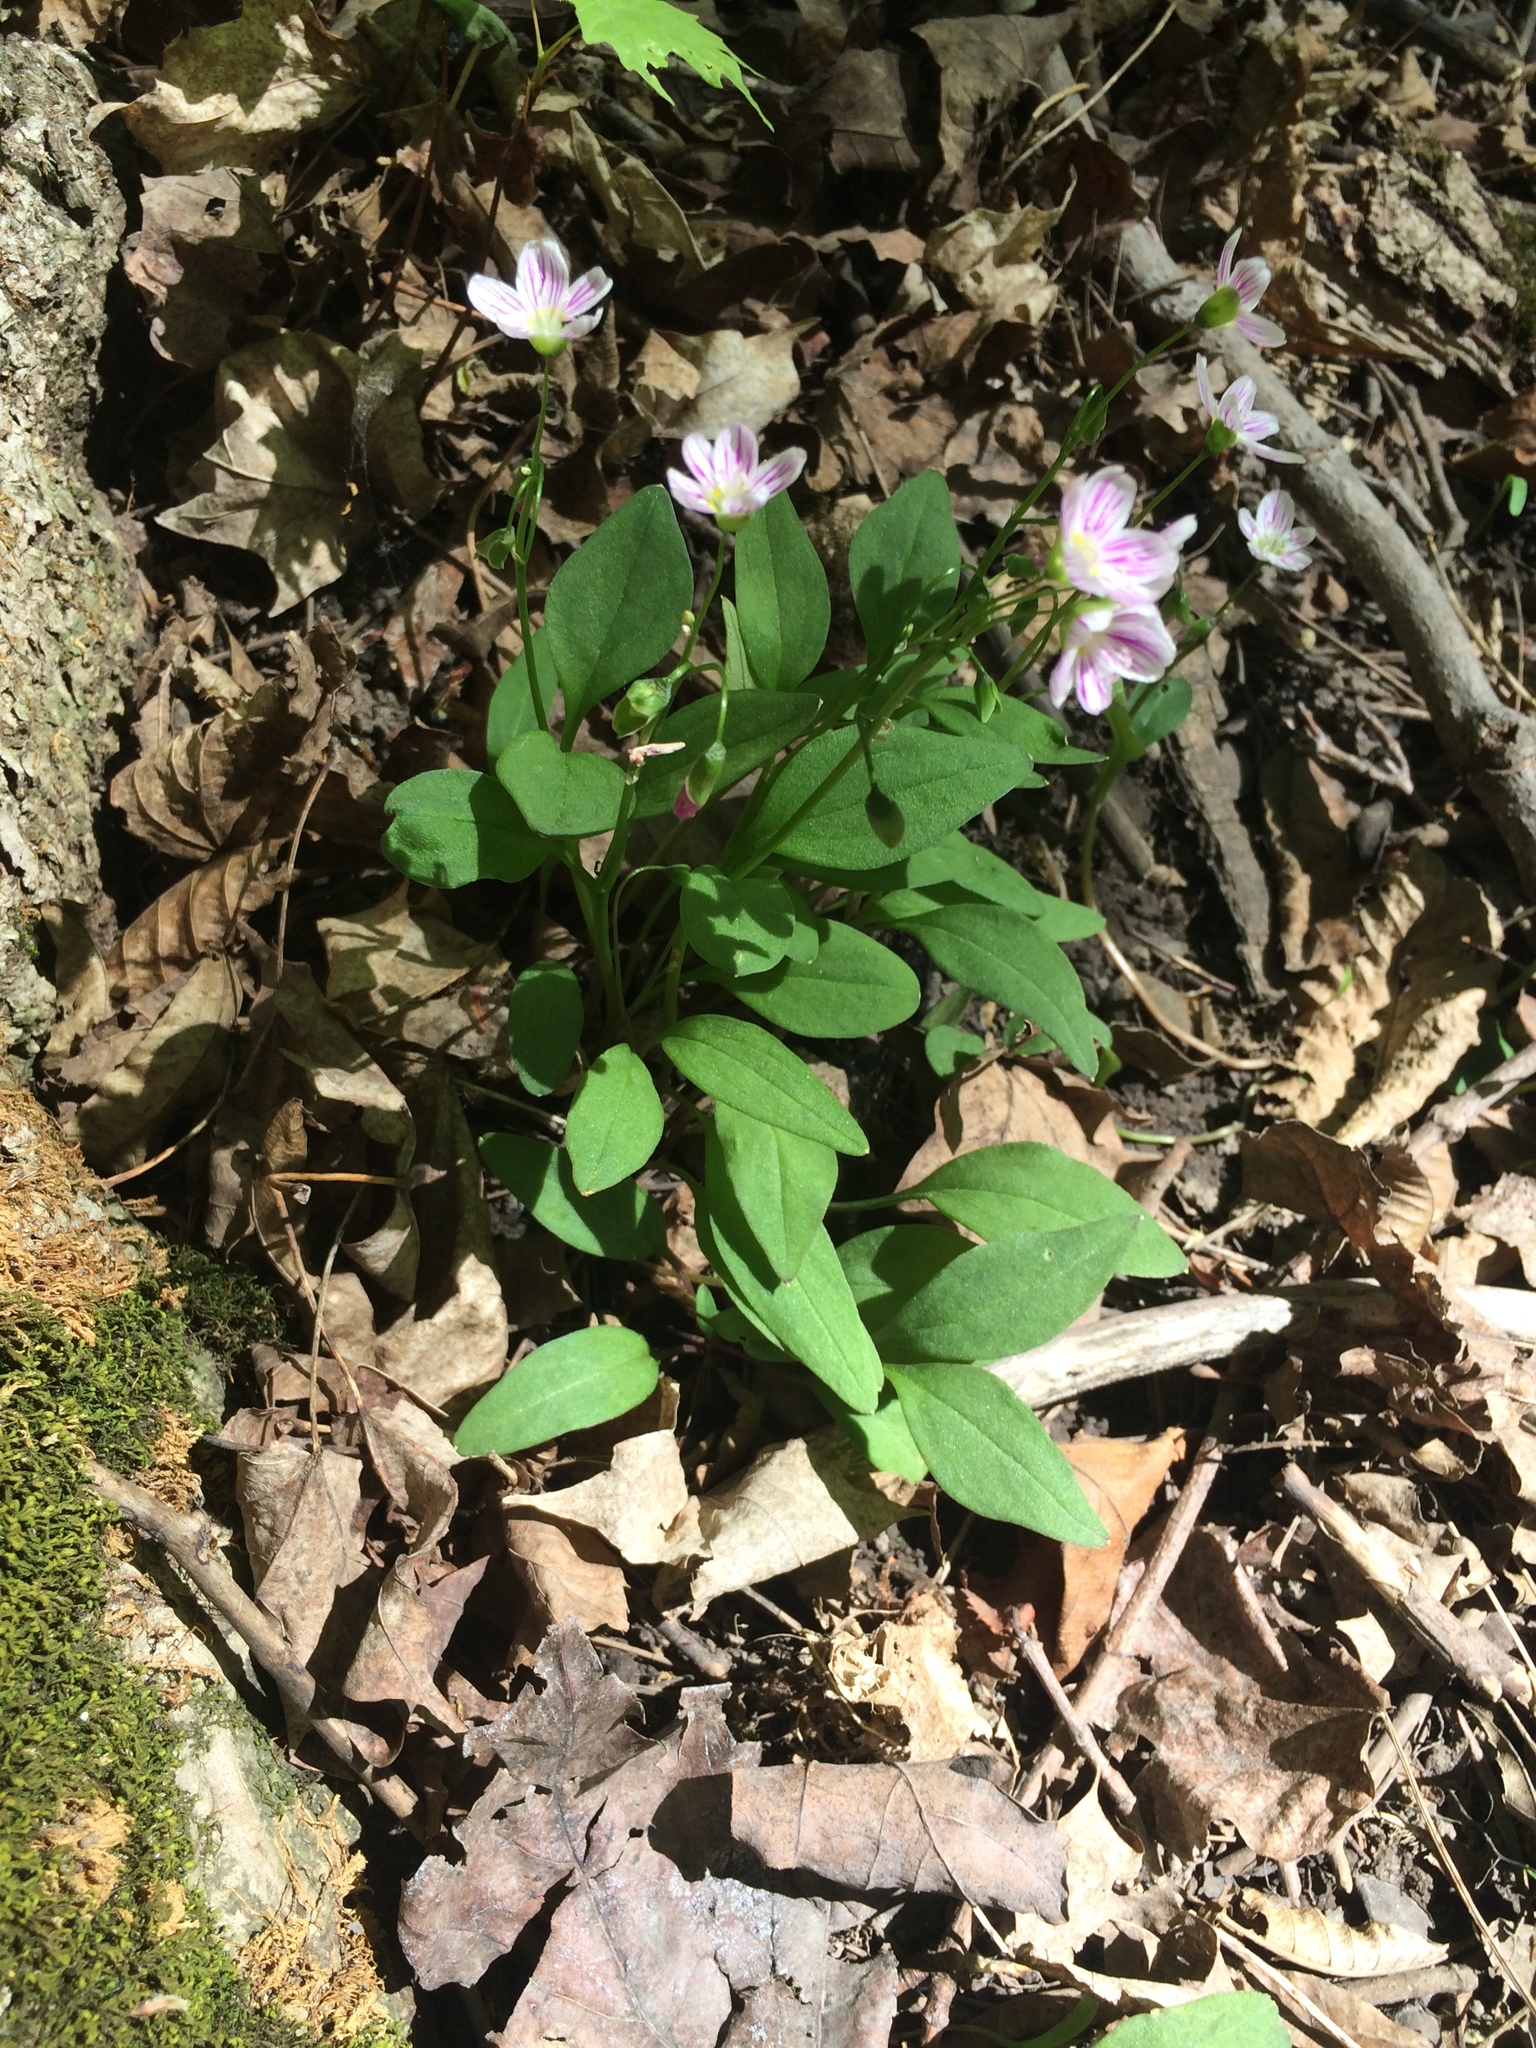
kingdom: Plantae
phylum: Tracheophyta
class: Magnoliopsida
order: Caryophyllales
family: Montiaceae
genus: Claytonia
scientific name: Claytonia caroliniana
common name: Carolina spring beauty
